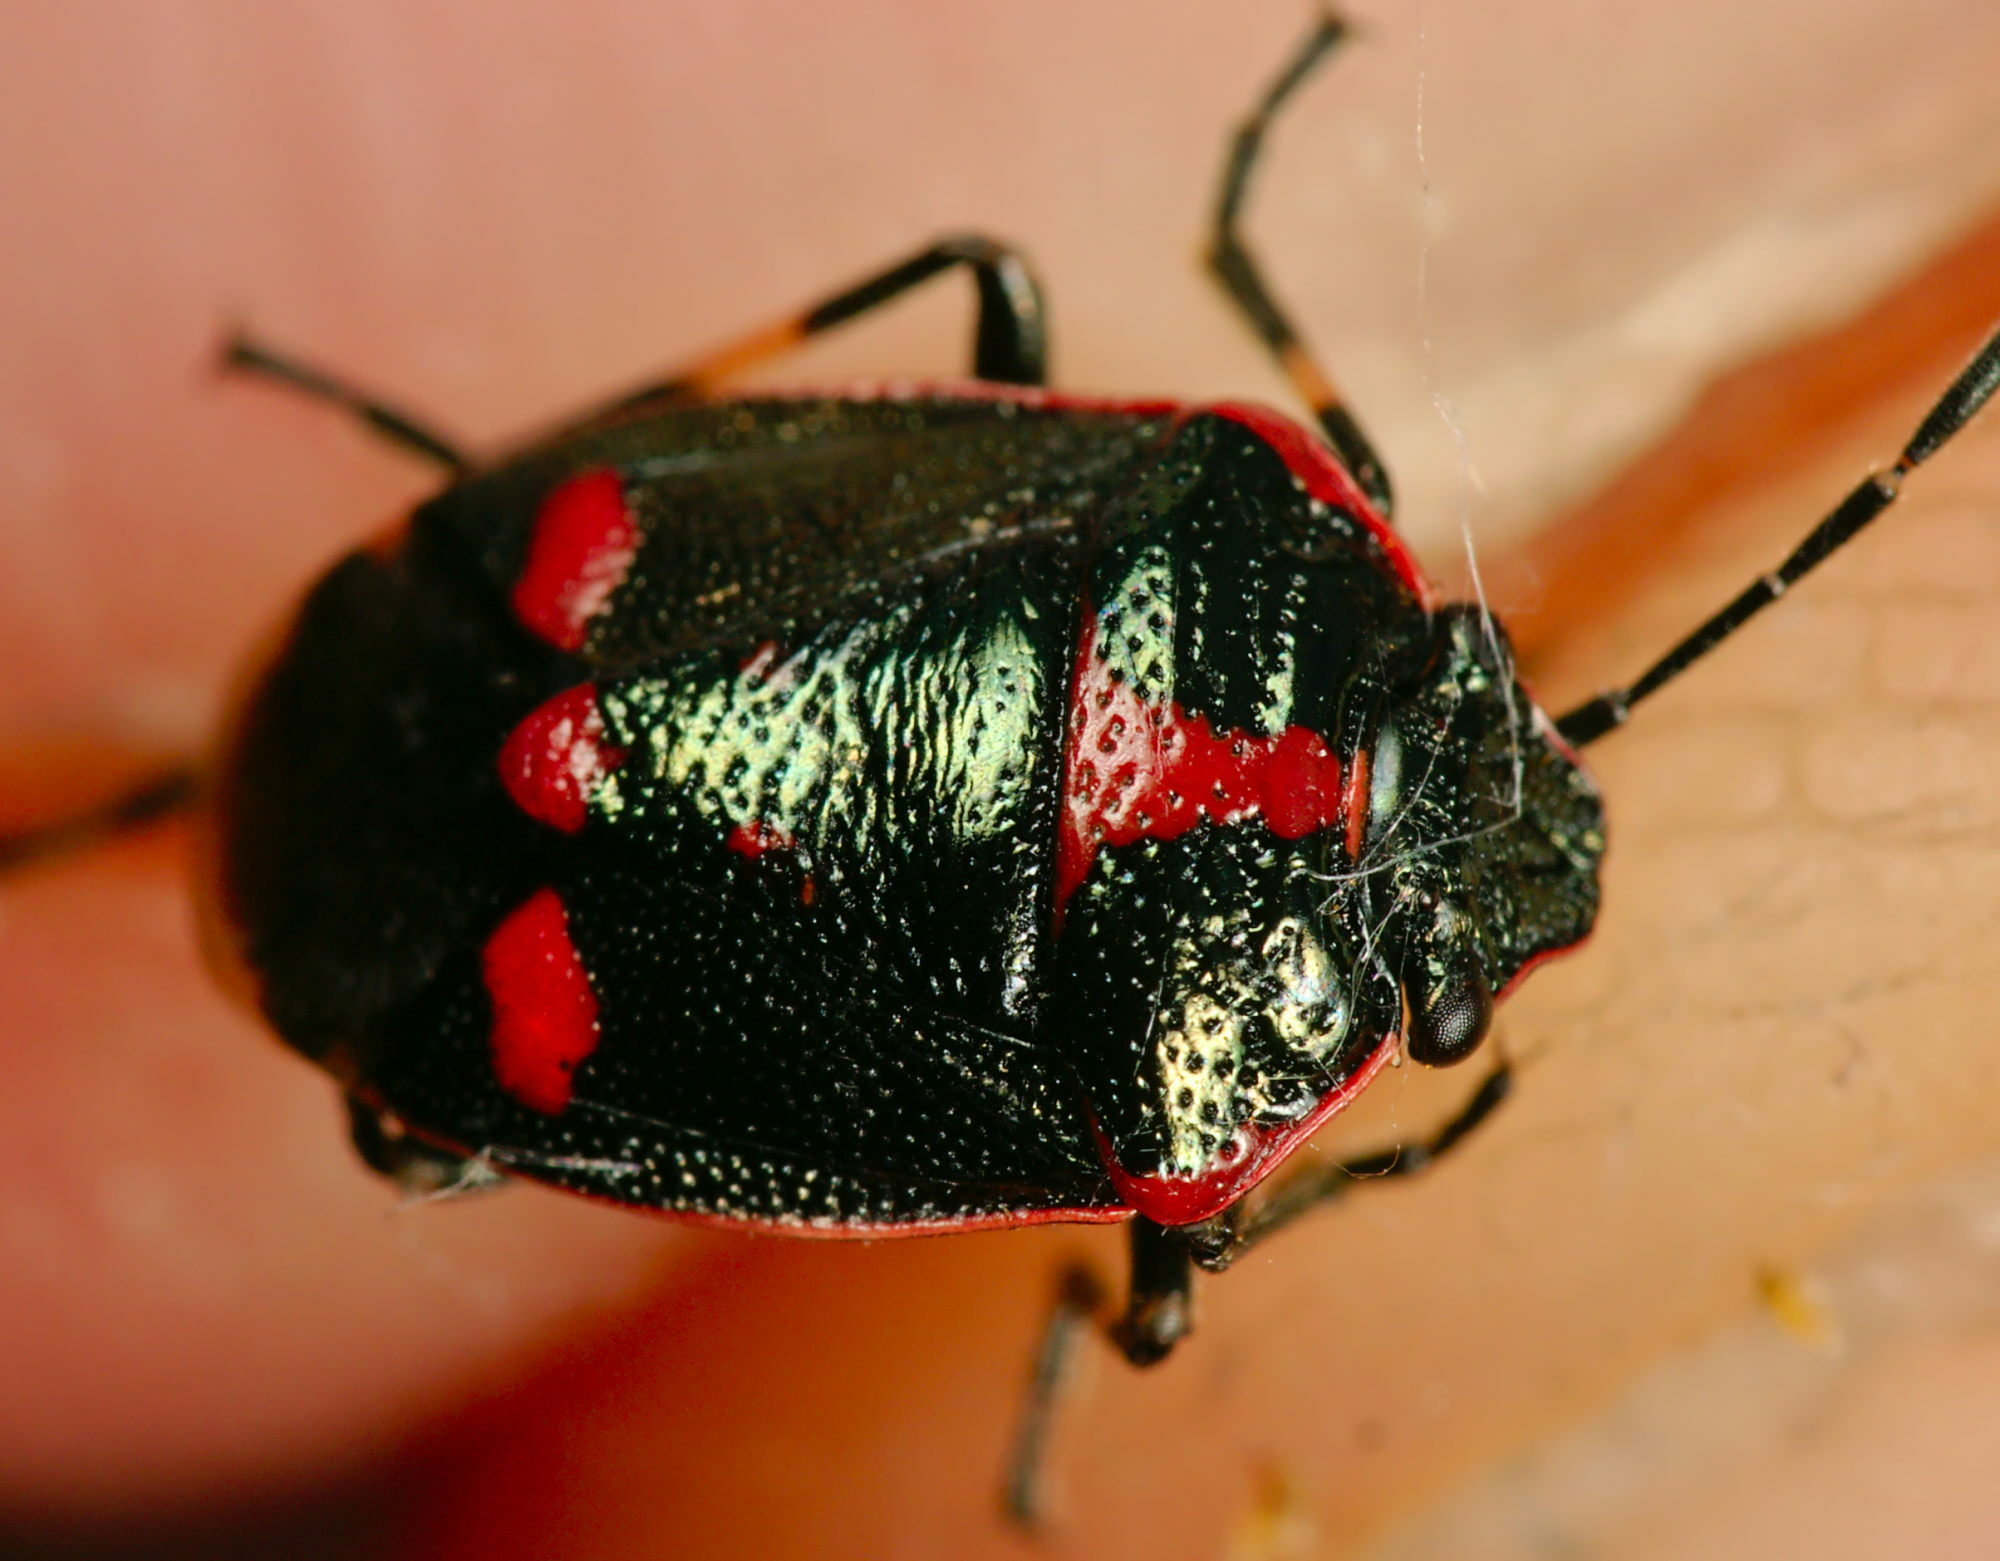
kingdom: Animalia
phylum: Arthropoda
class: Insecta
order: Hemiptera
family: Pentatomidae
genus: Eurydema
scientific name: Eurydema oleracea
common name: Cabbage bug
